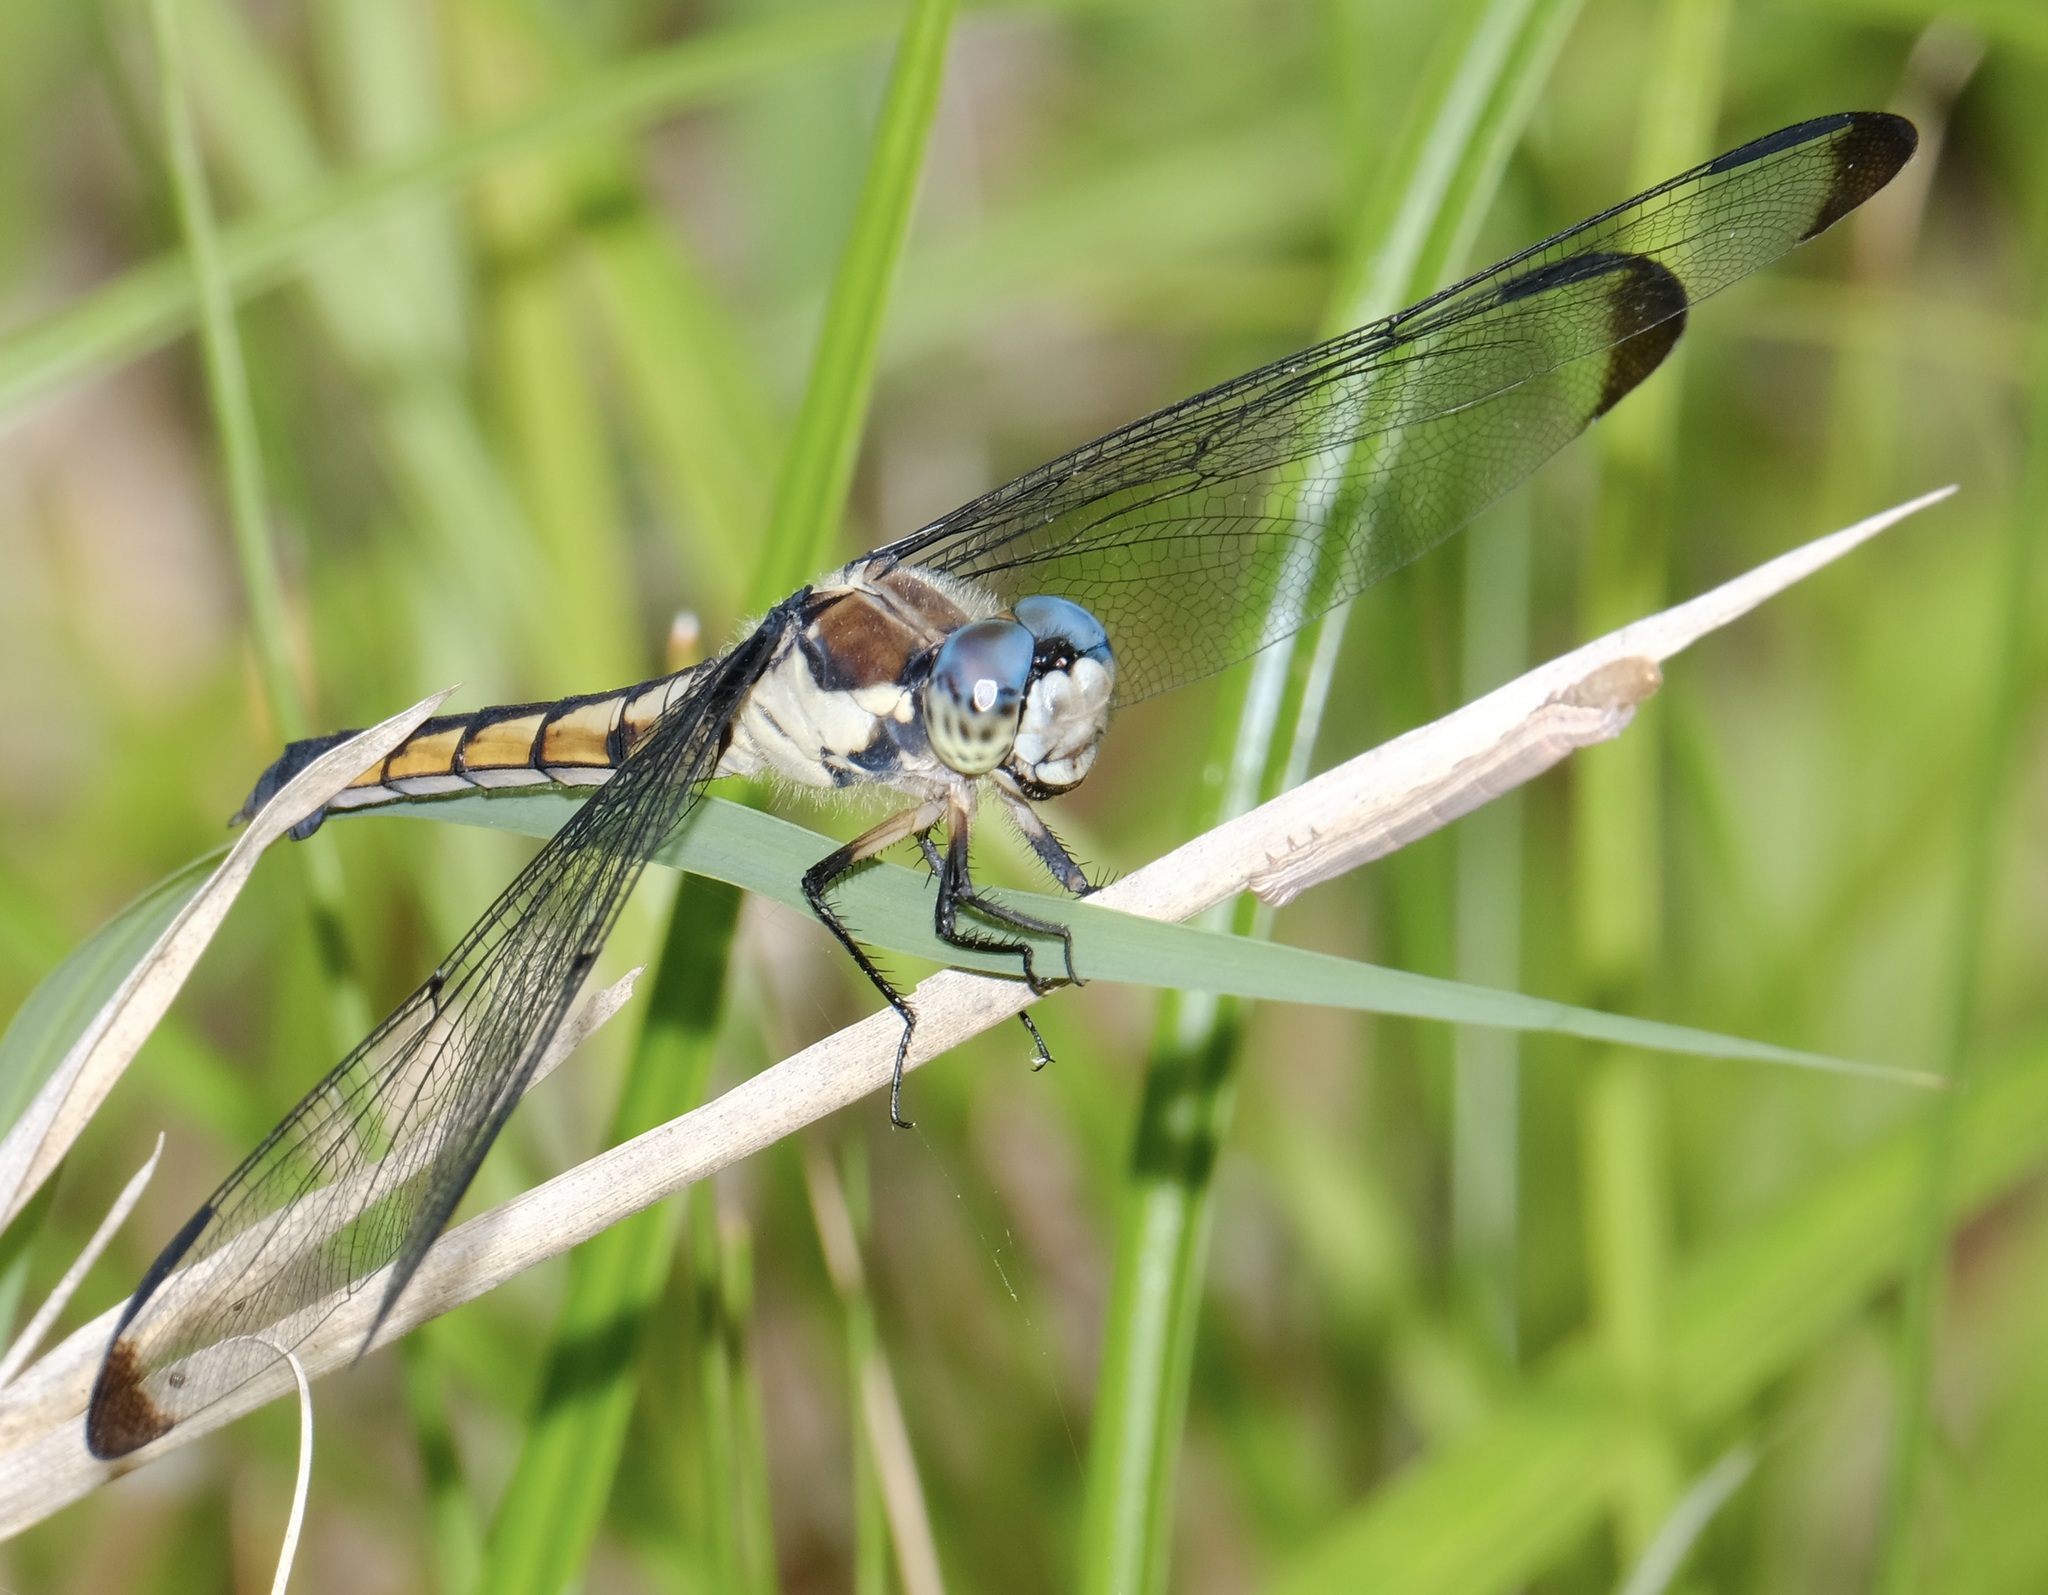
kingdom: Animalia
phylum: Arthropoda
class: Insecta
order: Odonata
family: Libellulidae
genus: Libellula
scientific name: Libellula vibrans
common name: Great blue skimmer
